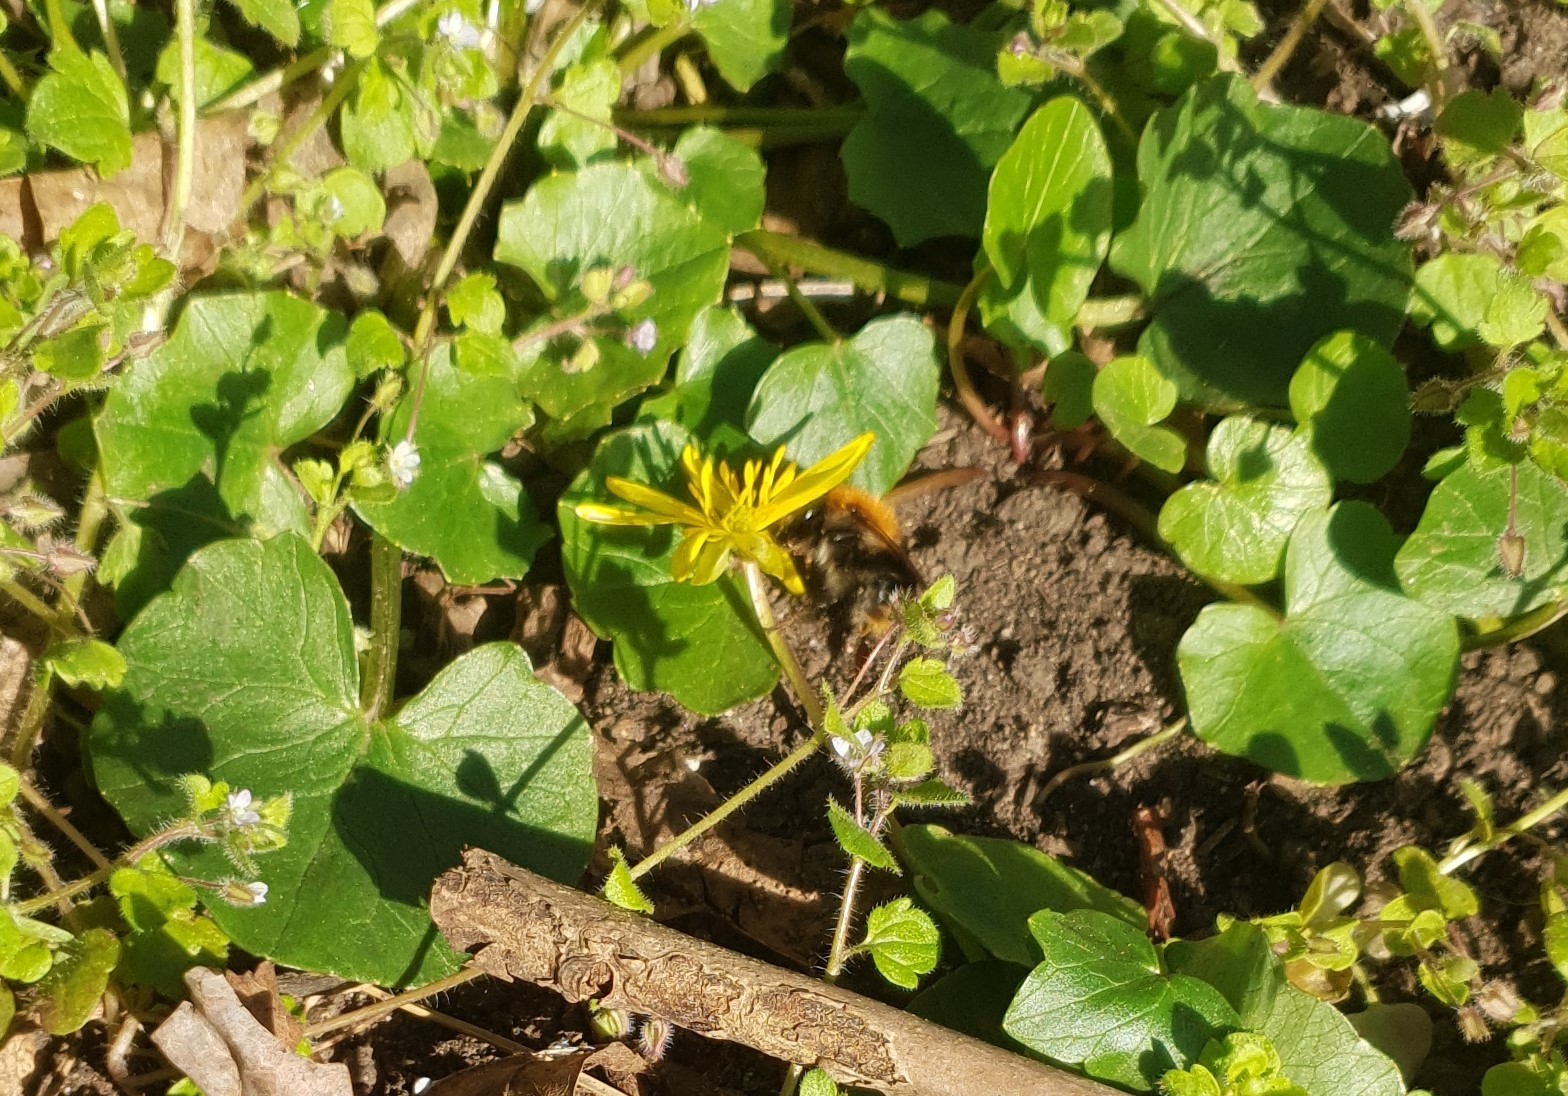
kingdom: Animalia
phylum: Arthropoda
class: Insecta
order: Hymenoptera
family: Apidae
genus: Bombus
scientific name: Bombus pascuorum
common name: Common carder bee
